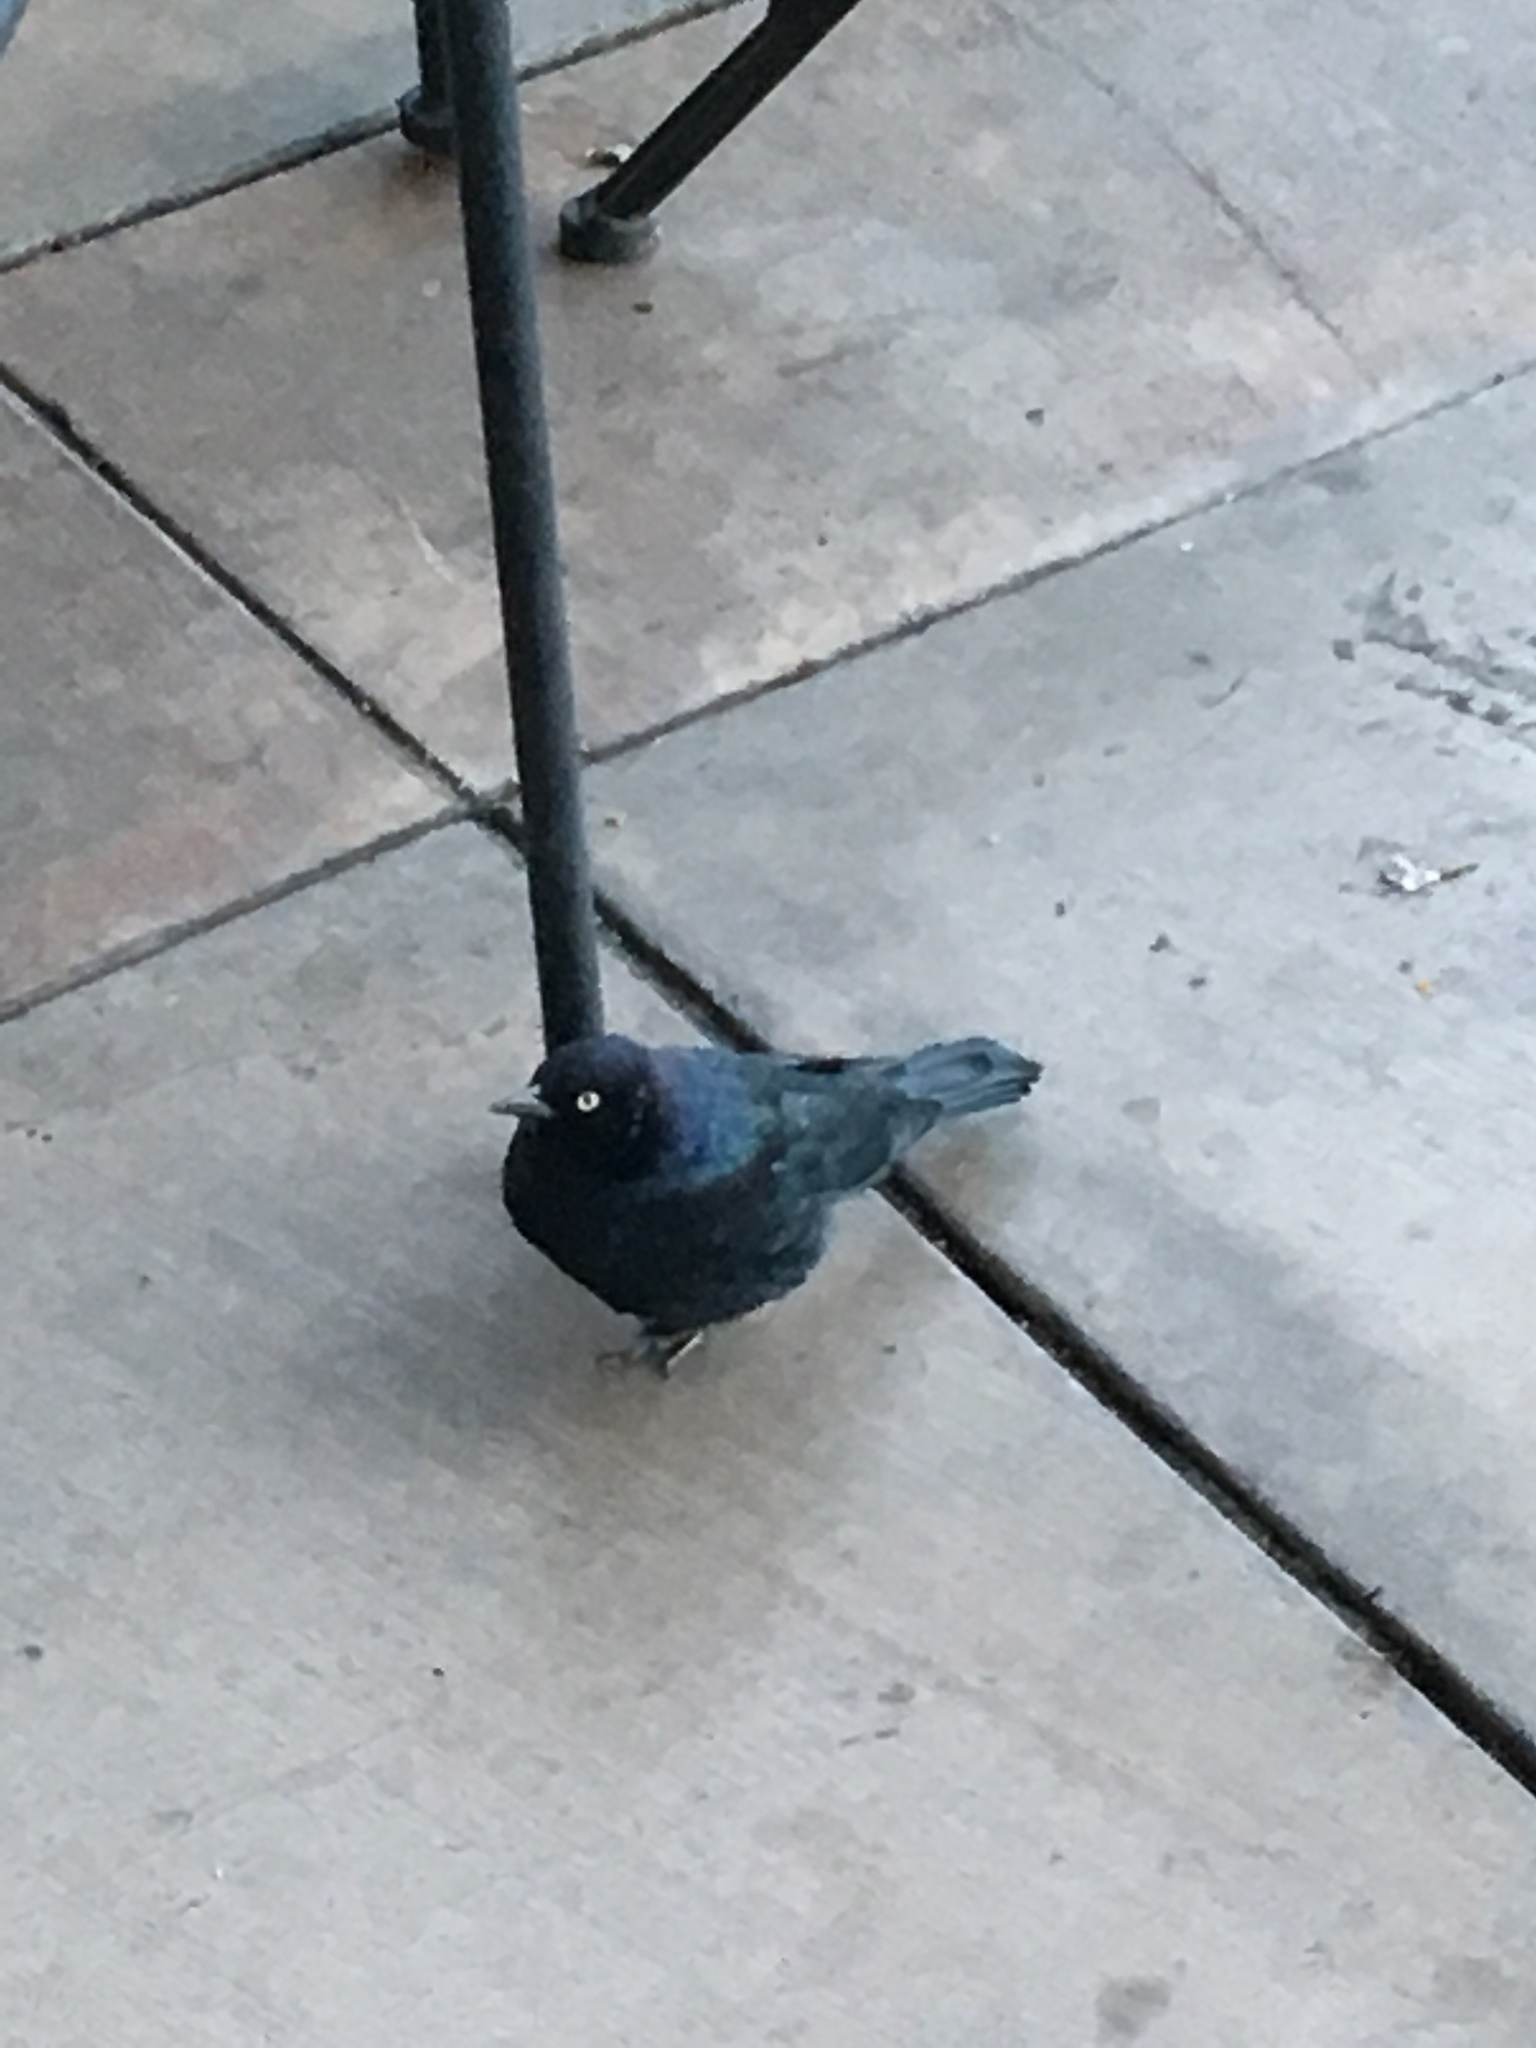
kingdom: Animalia
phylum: Chordata
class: Aves
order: Passeriformes
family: Icteridae
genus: Euphagus
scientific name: Euphagus cyanocephalus
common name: Brewer's blackbird
